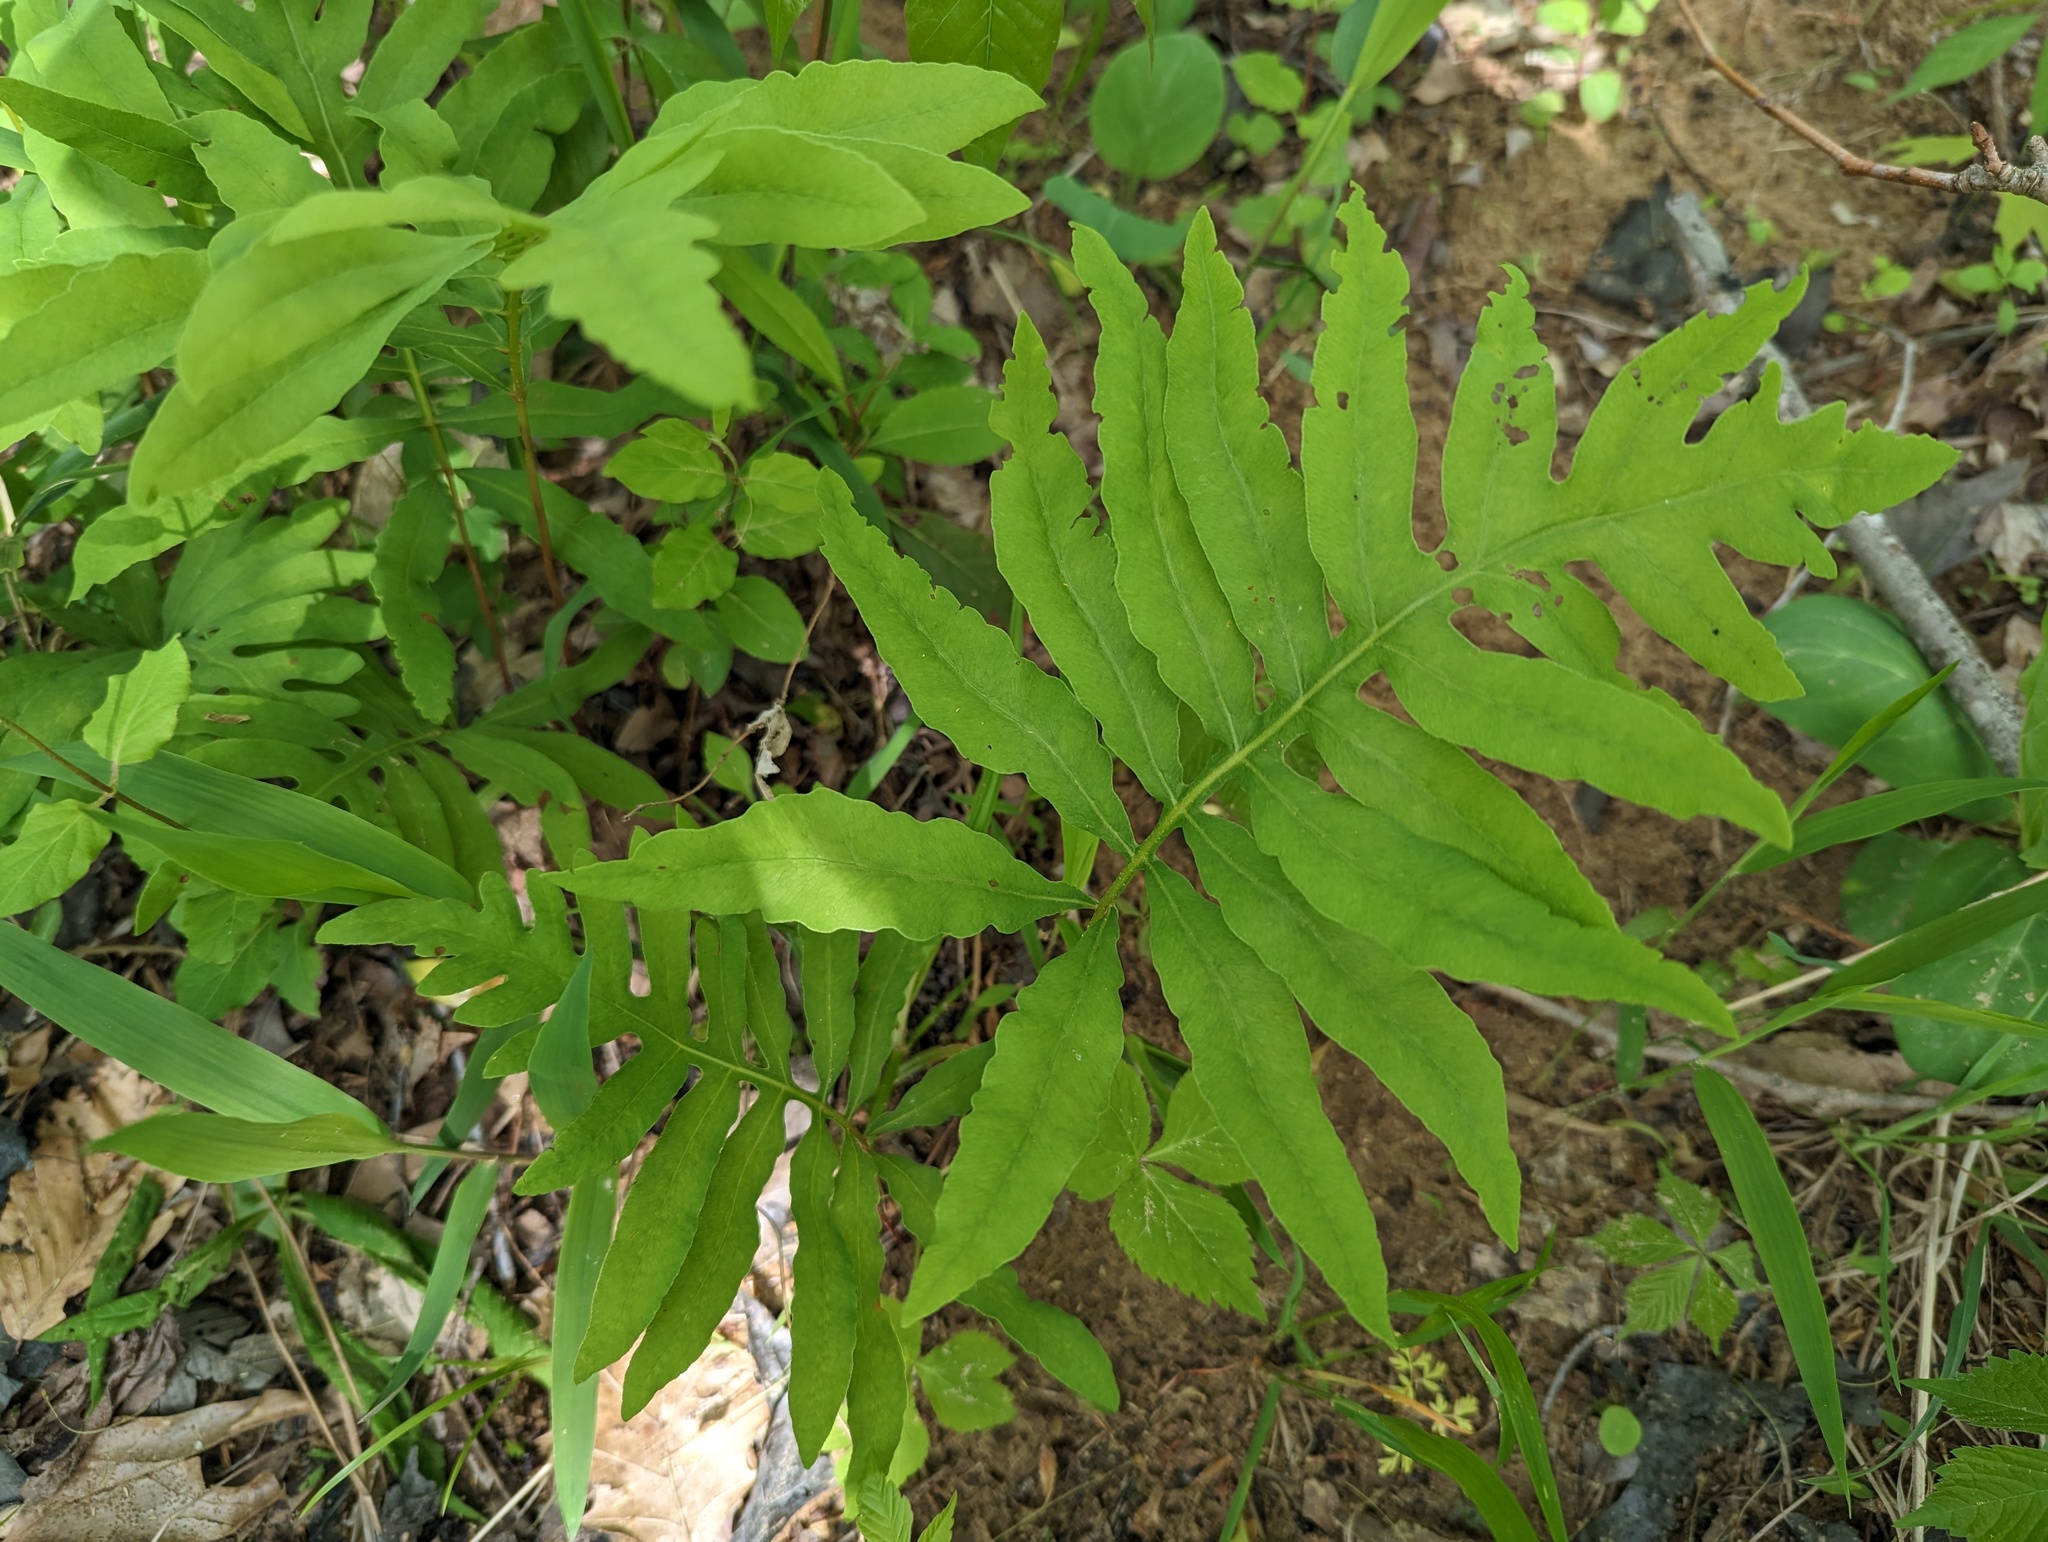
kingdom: Plantae
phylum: Tracheophyta
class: Polypodiopsida
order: Polypodiales
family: Onocleaceae
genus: Onoclea
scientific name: Onoclea sensibilis
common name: Sensitive fern
